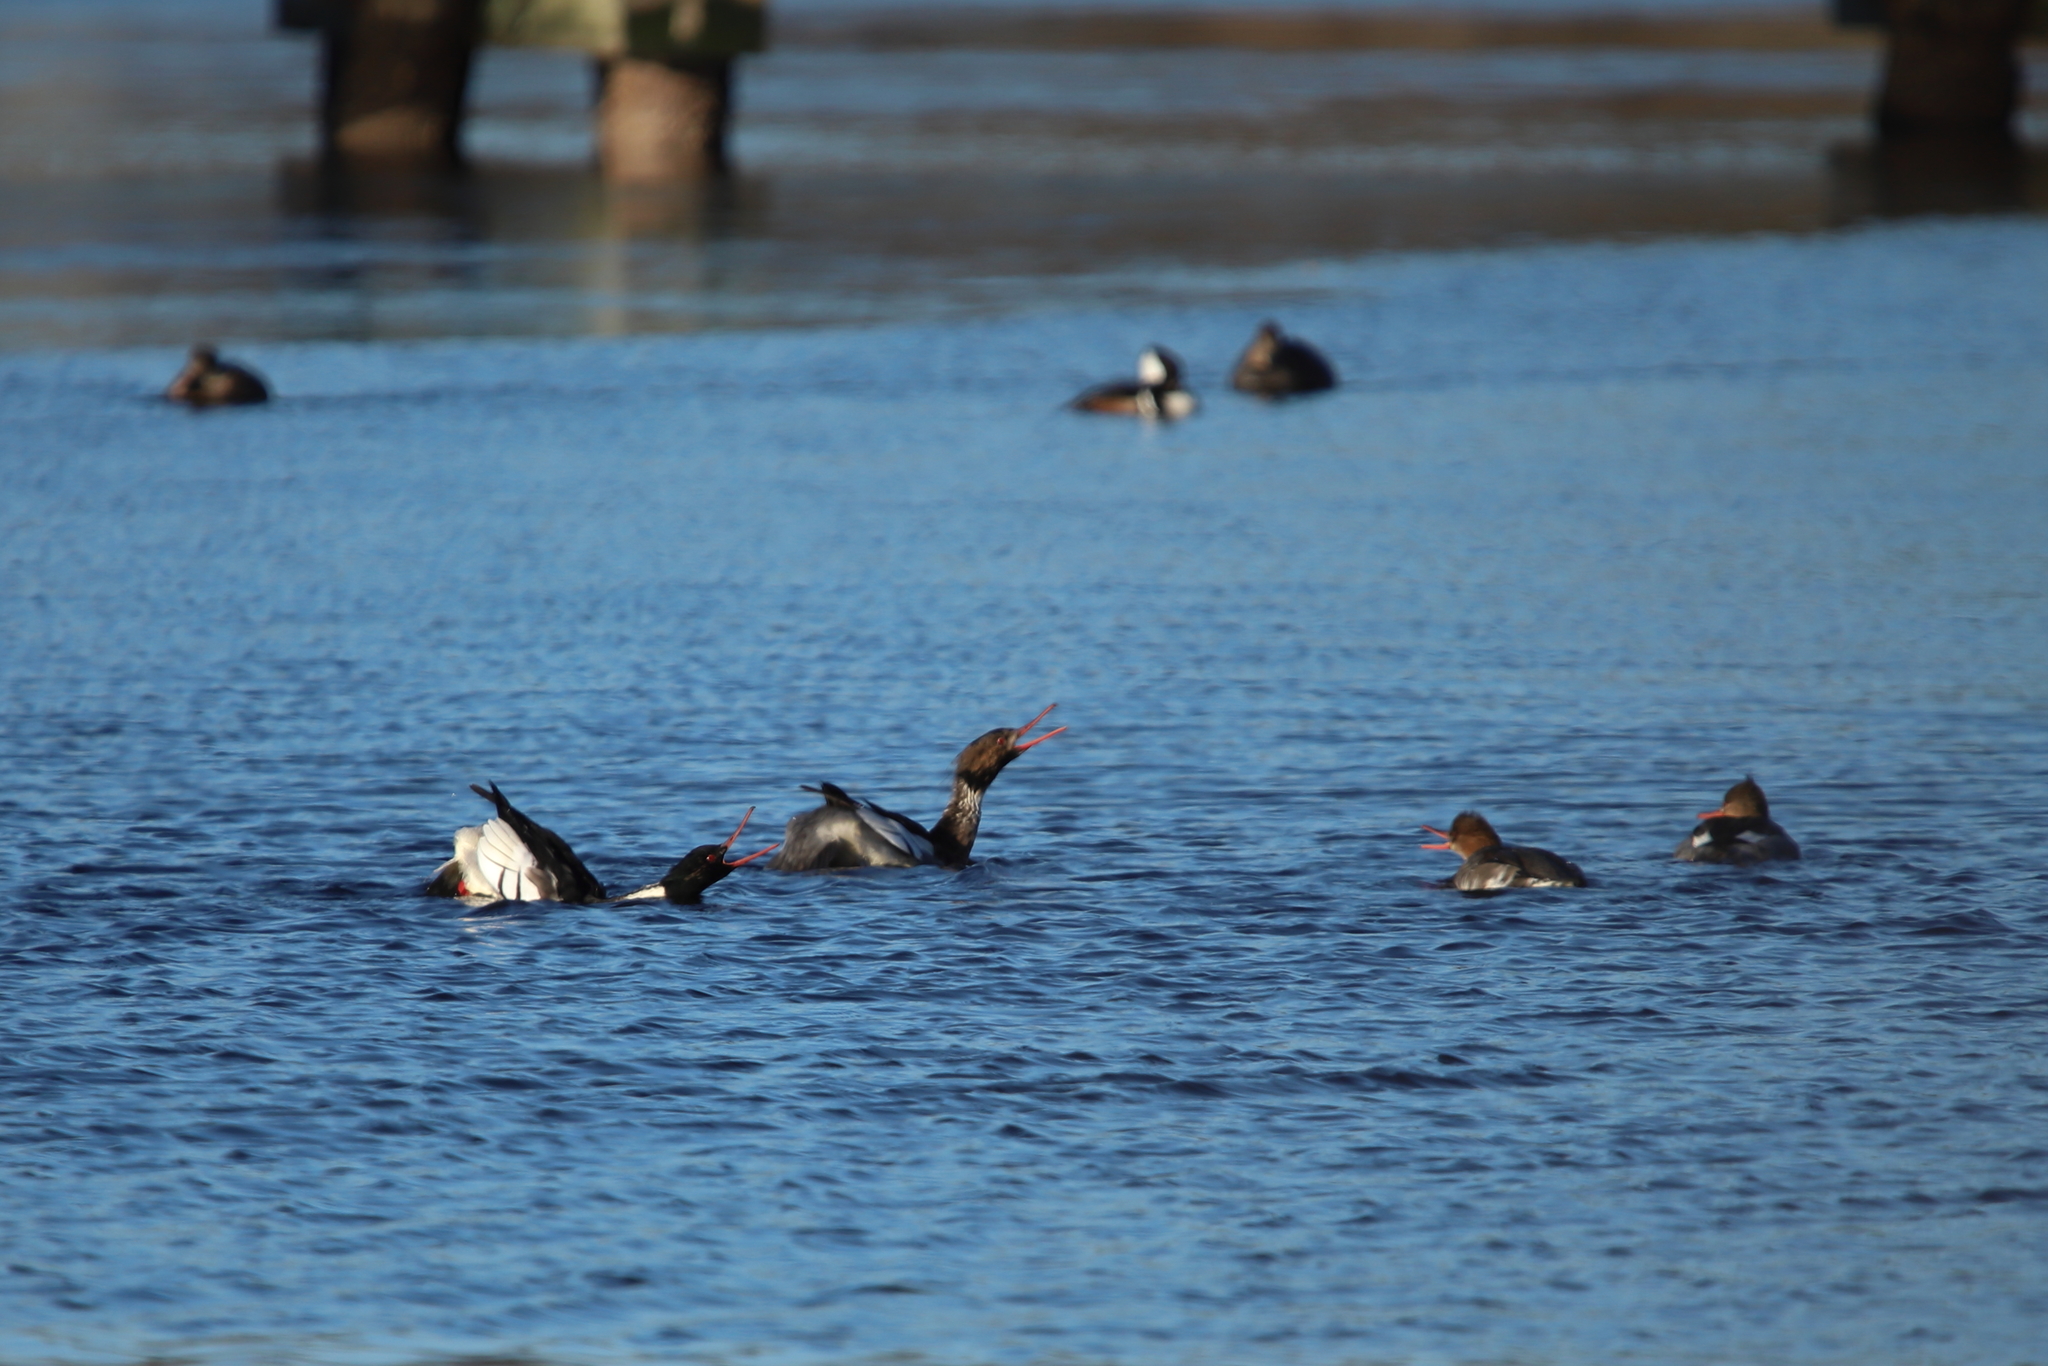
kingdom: Animalia
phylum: Chordata
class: Aves
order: Anseriformes
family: Anatidae
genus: Mergus
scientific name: Mergus serrator
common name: Red-breasted merganser
